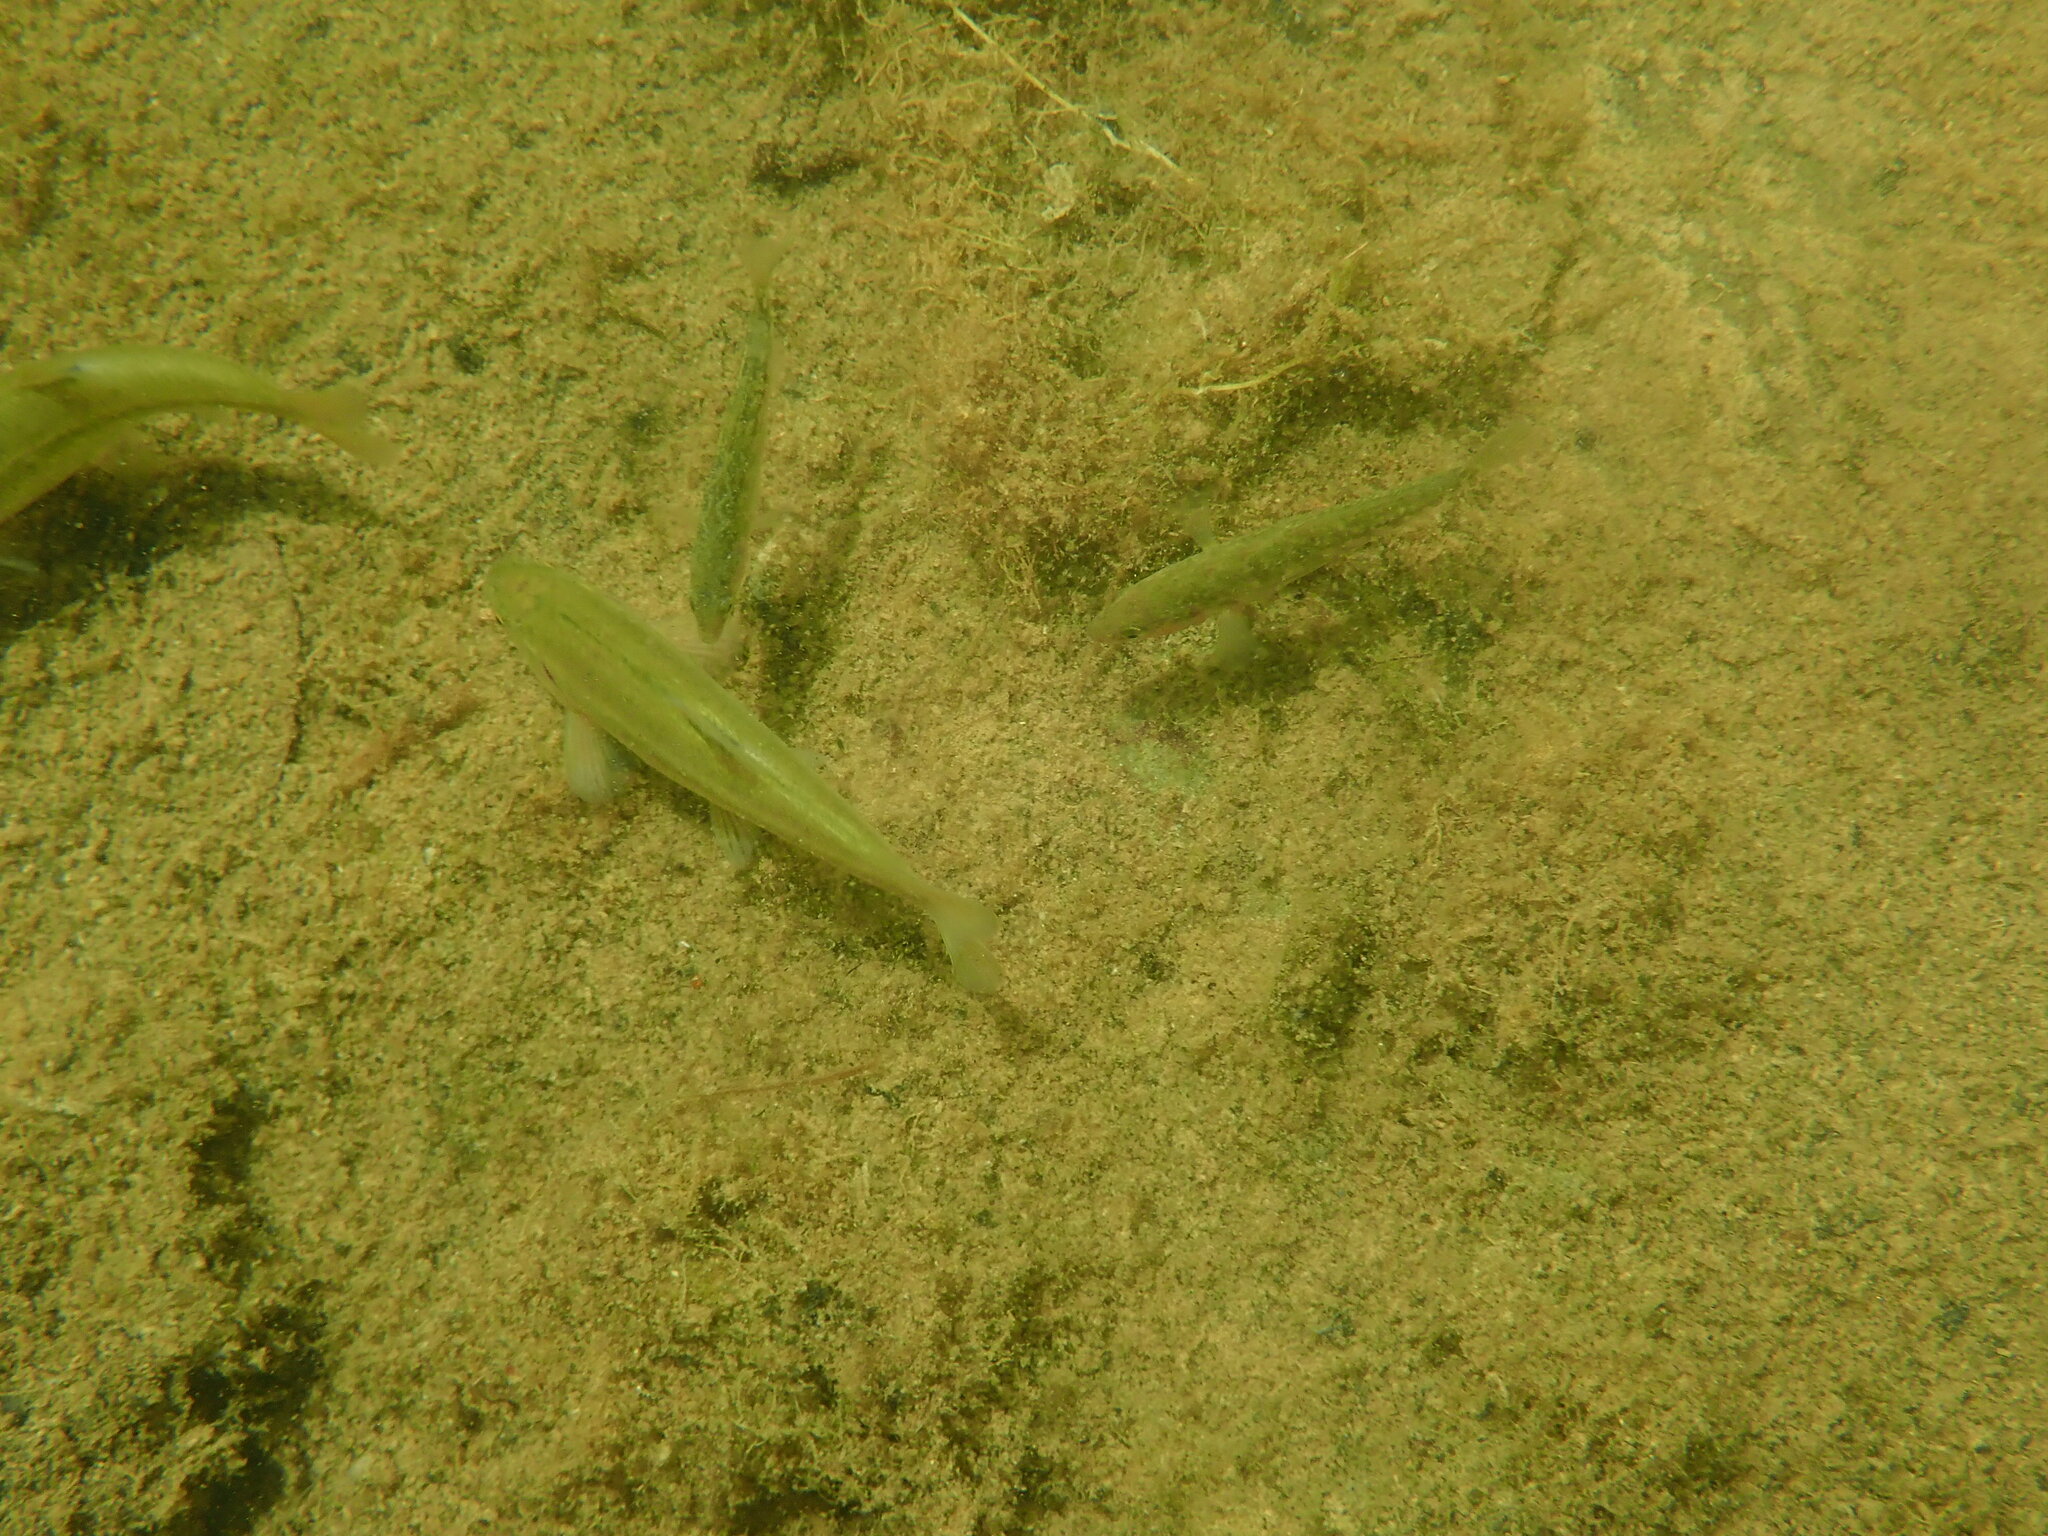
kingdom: Animalia
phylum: Chordata
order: Gasterosteiformes
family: Gasterosteidae
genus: Gasterosteus
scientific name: Gasterosteus aculeatus
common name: Three-spined stickleback
